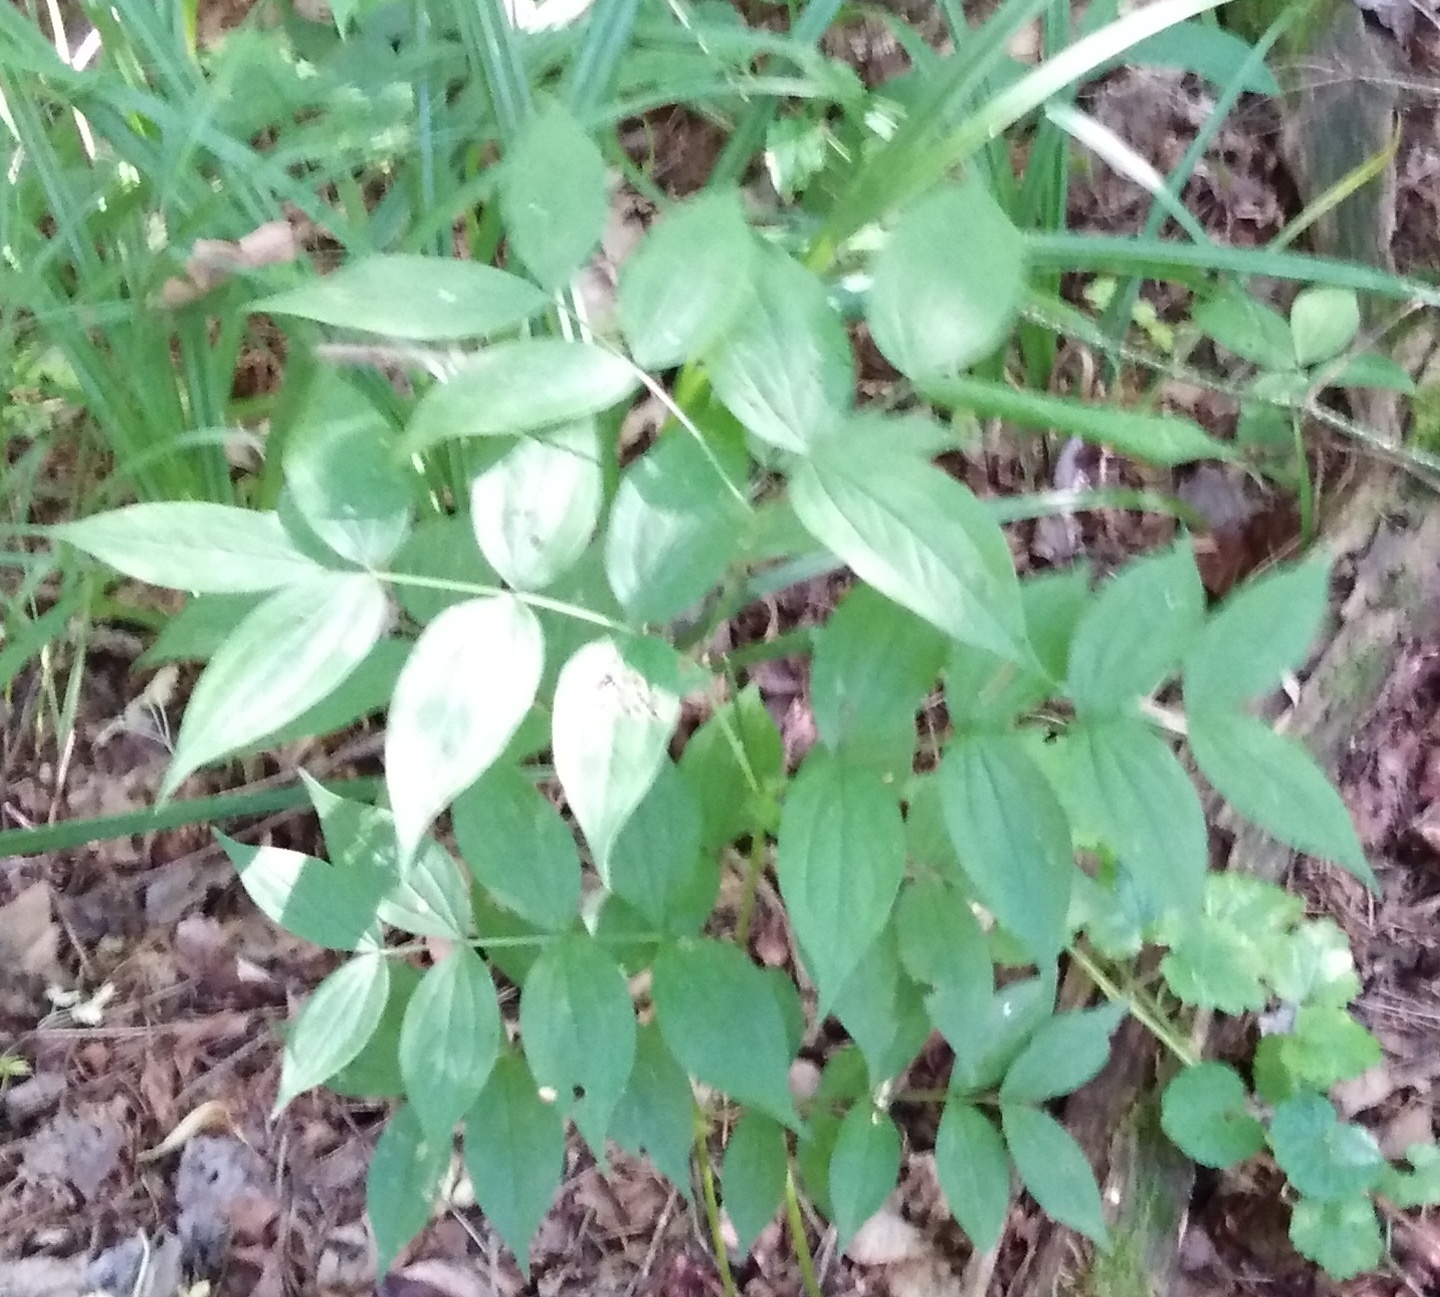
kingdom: Plantae
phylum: Tracheophyta
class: Magnoliopsida
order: Fabales
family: Fabaceae
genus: Lathyrus
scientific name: Lathyrus vernus
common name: Spring pea
